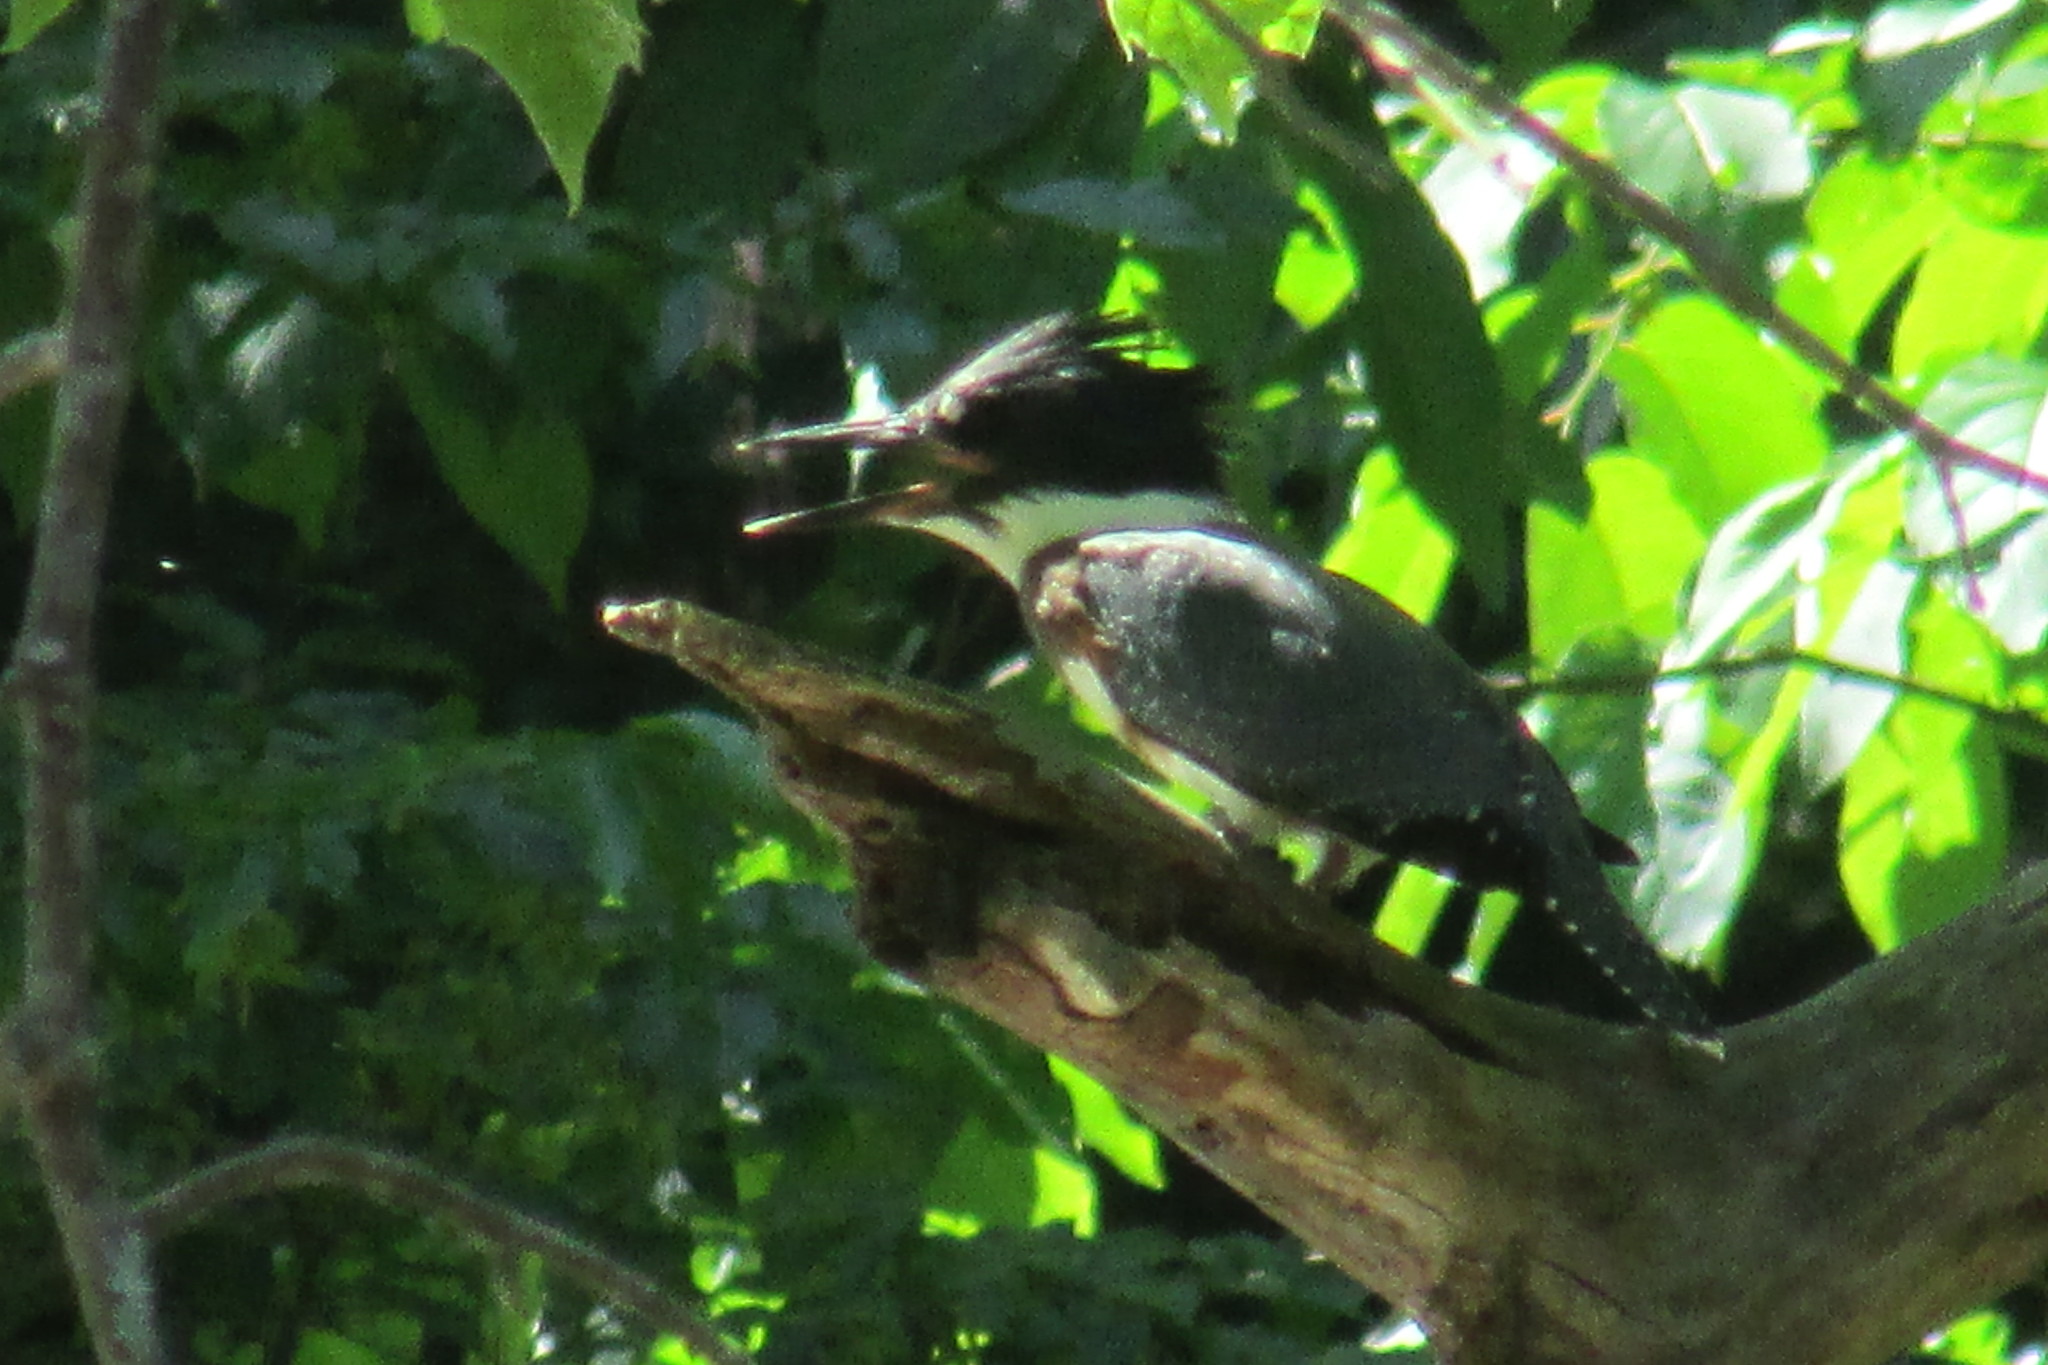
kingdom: Animalia
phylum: Chordata
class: Aves
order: Coraciiformes
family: Alcedinidae
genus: Megaceryle
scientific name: Megaceryle alcyon
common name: Belted kingfisher
